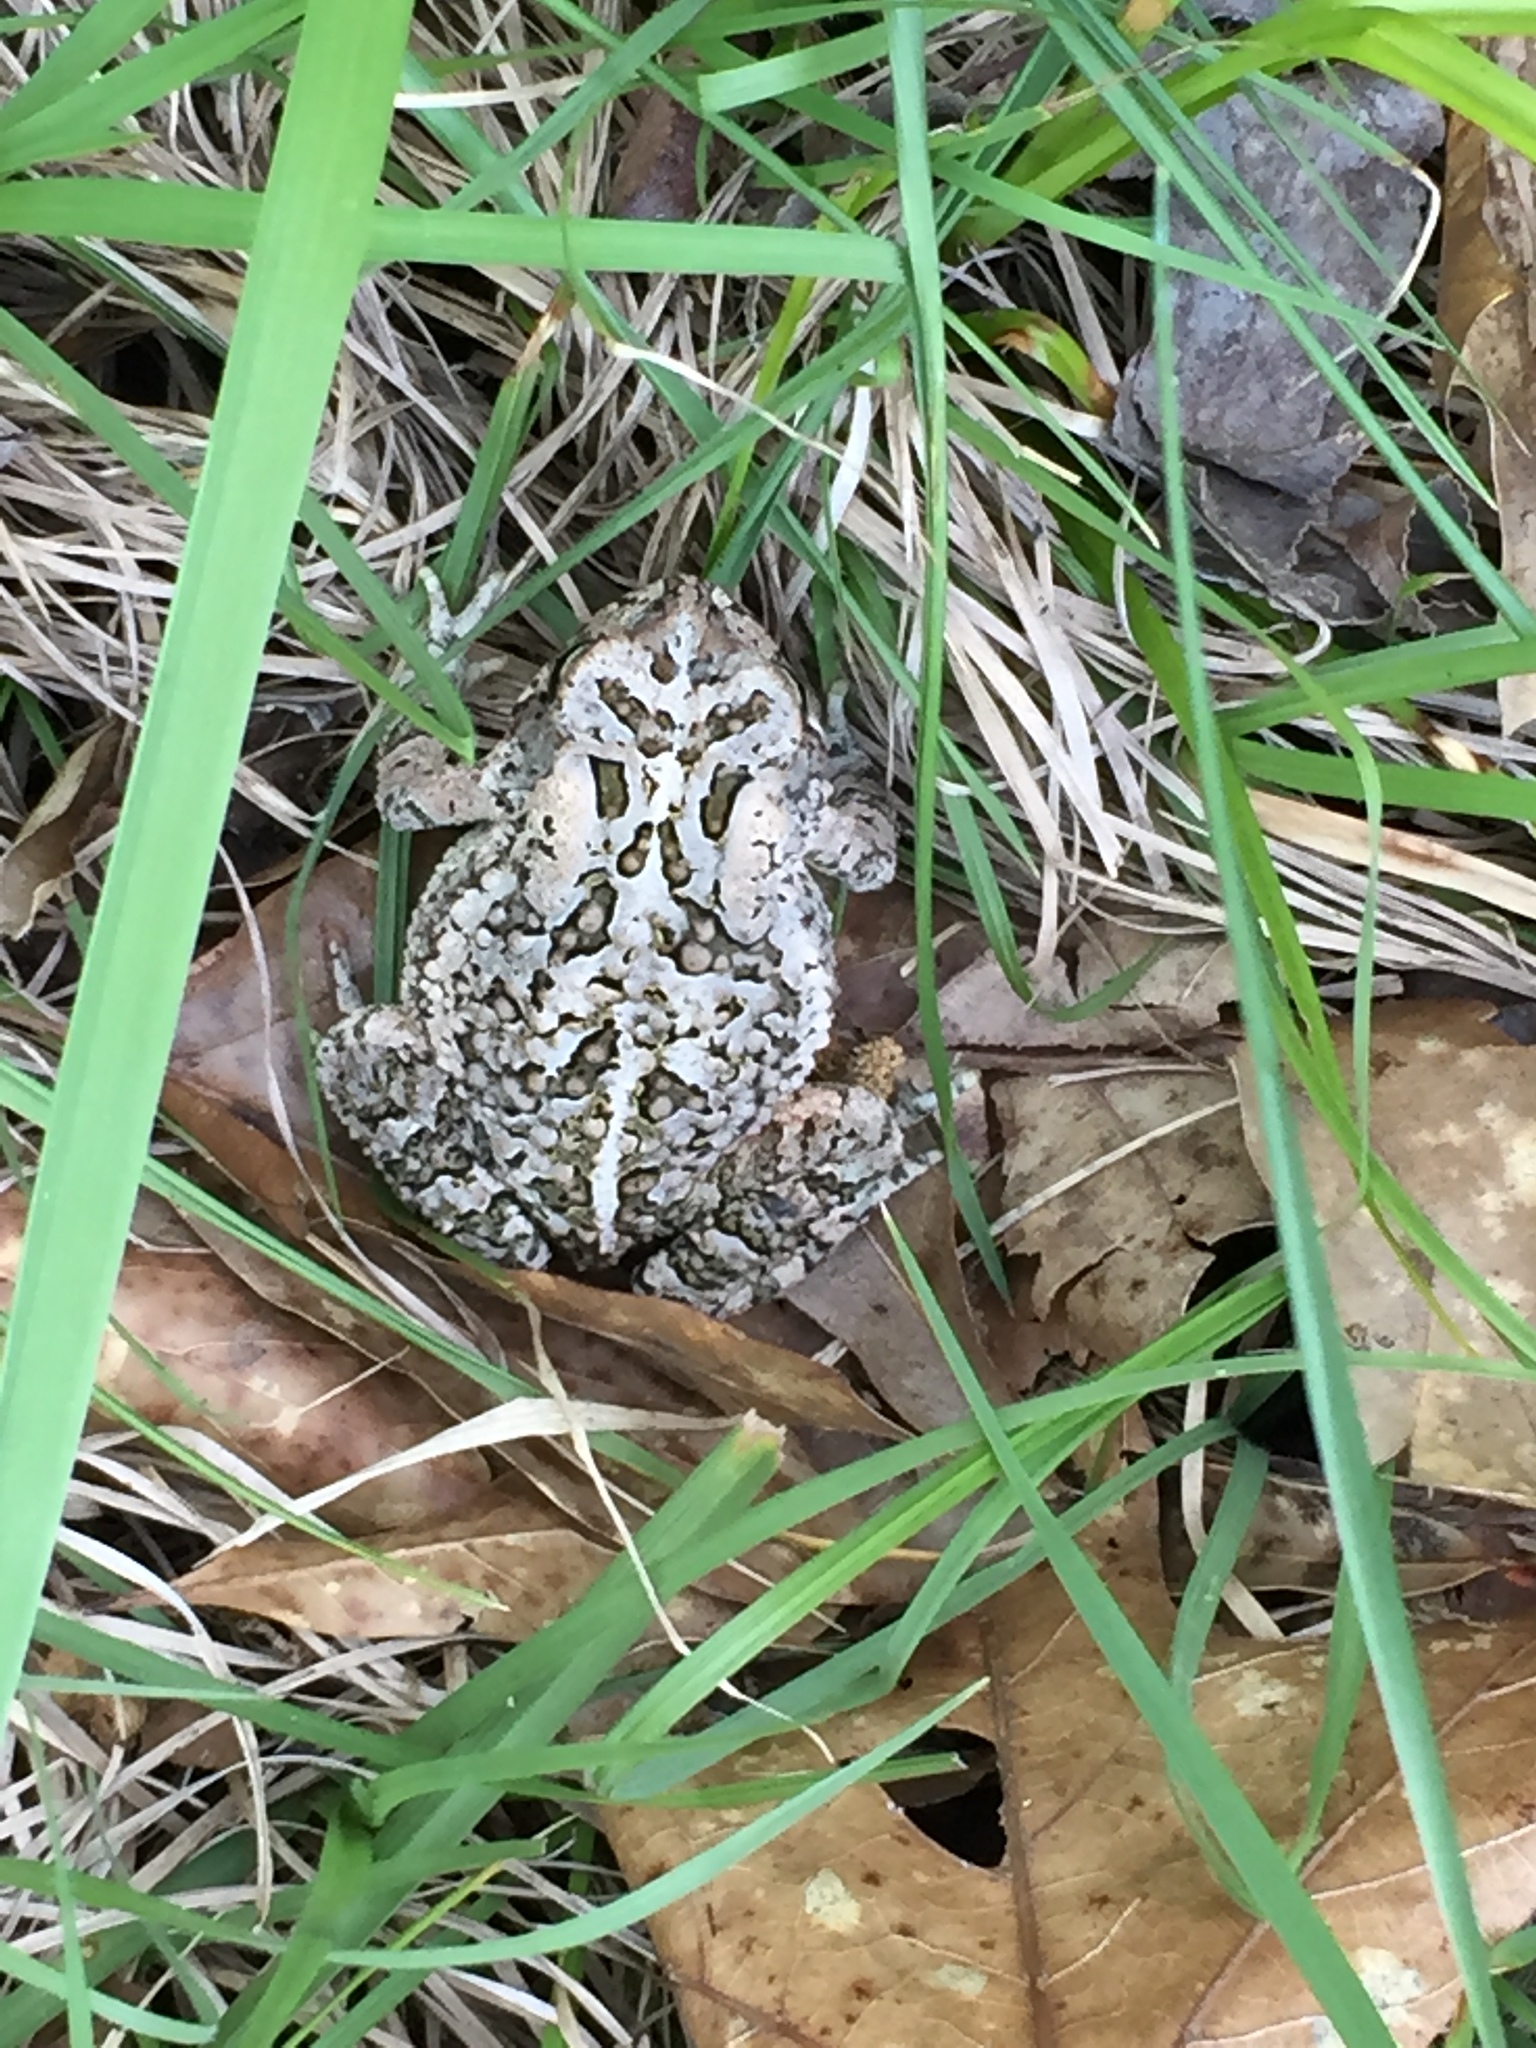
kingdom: Animalia
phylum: Chordata
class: Amphibia
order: Anura
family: Bufonidae
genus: Anaxyrus
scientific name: Anaxyrus fowleri
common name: Fowler's toad
